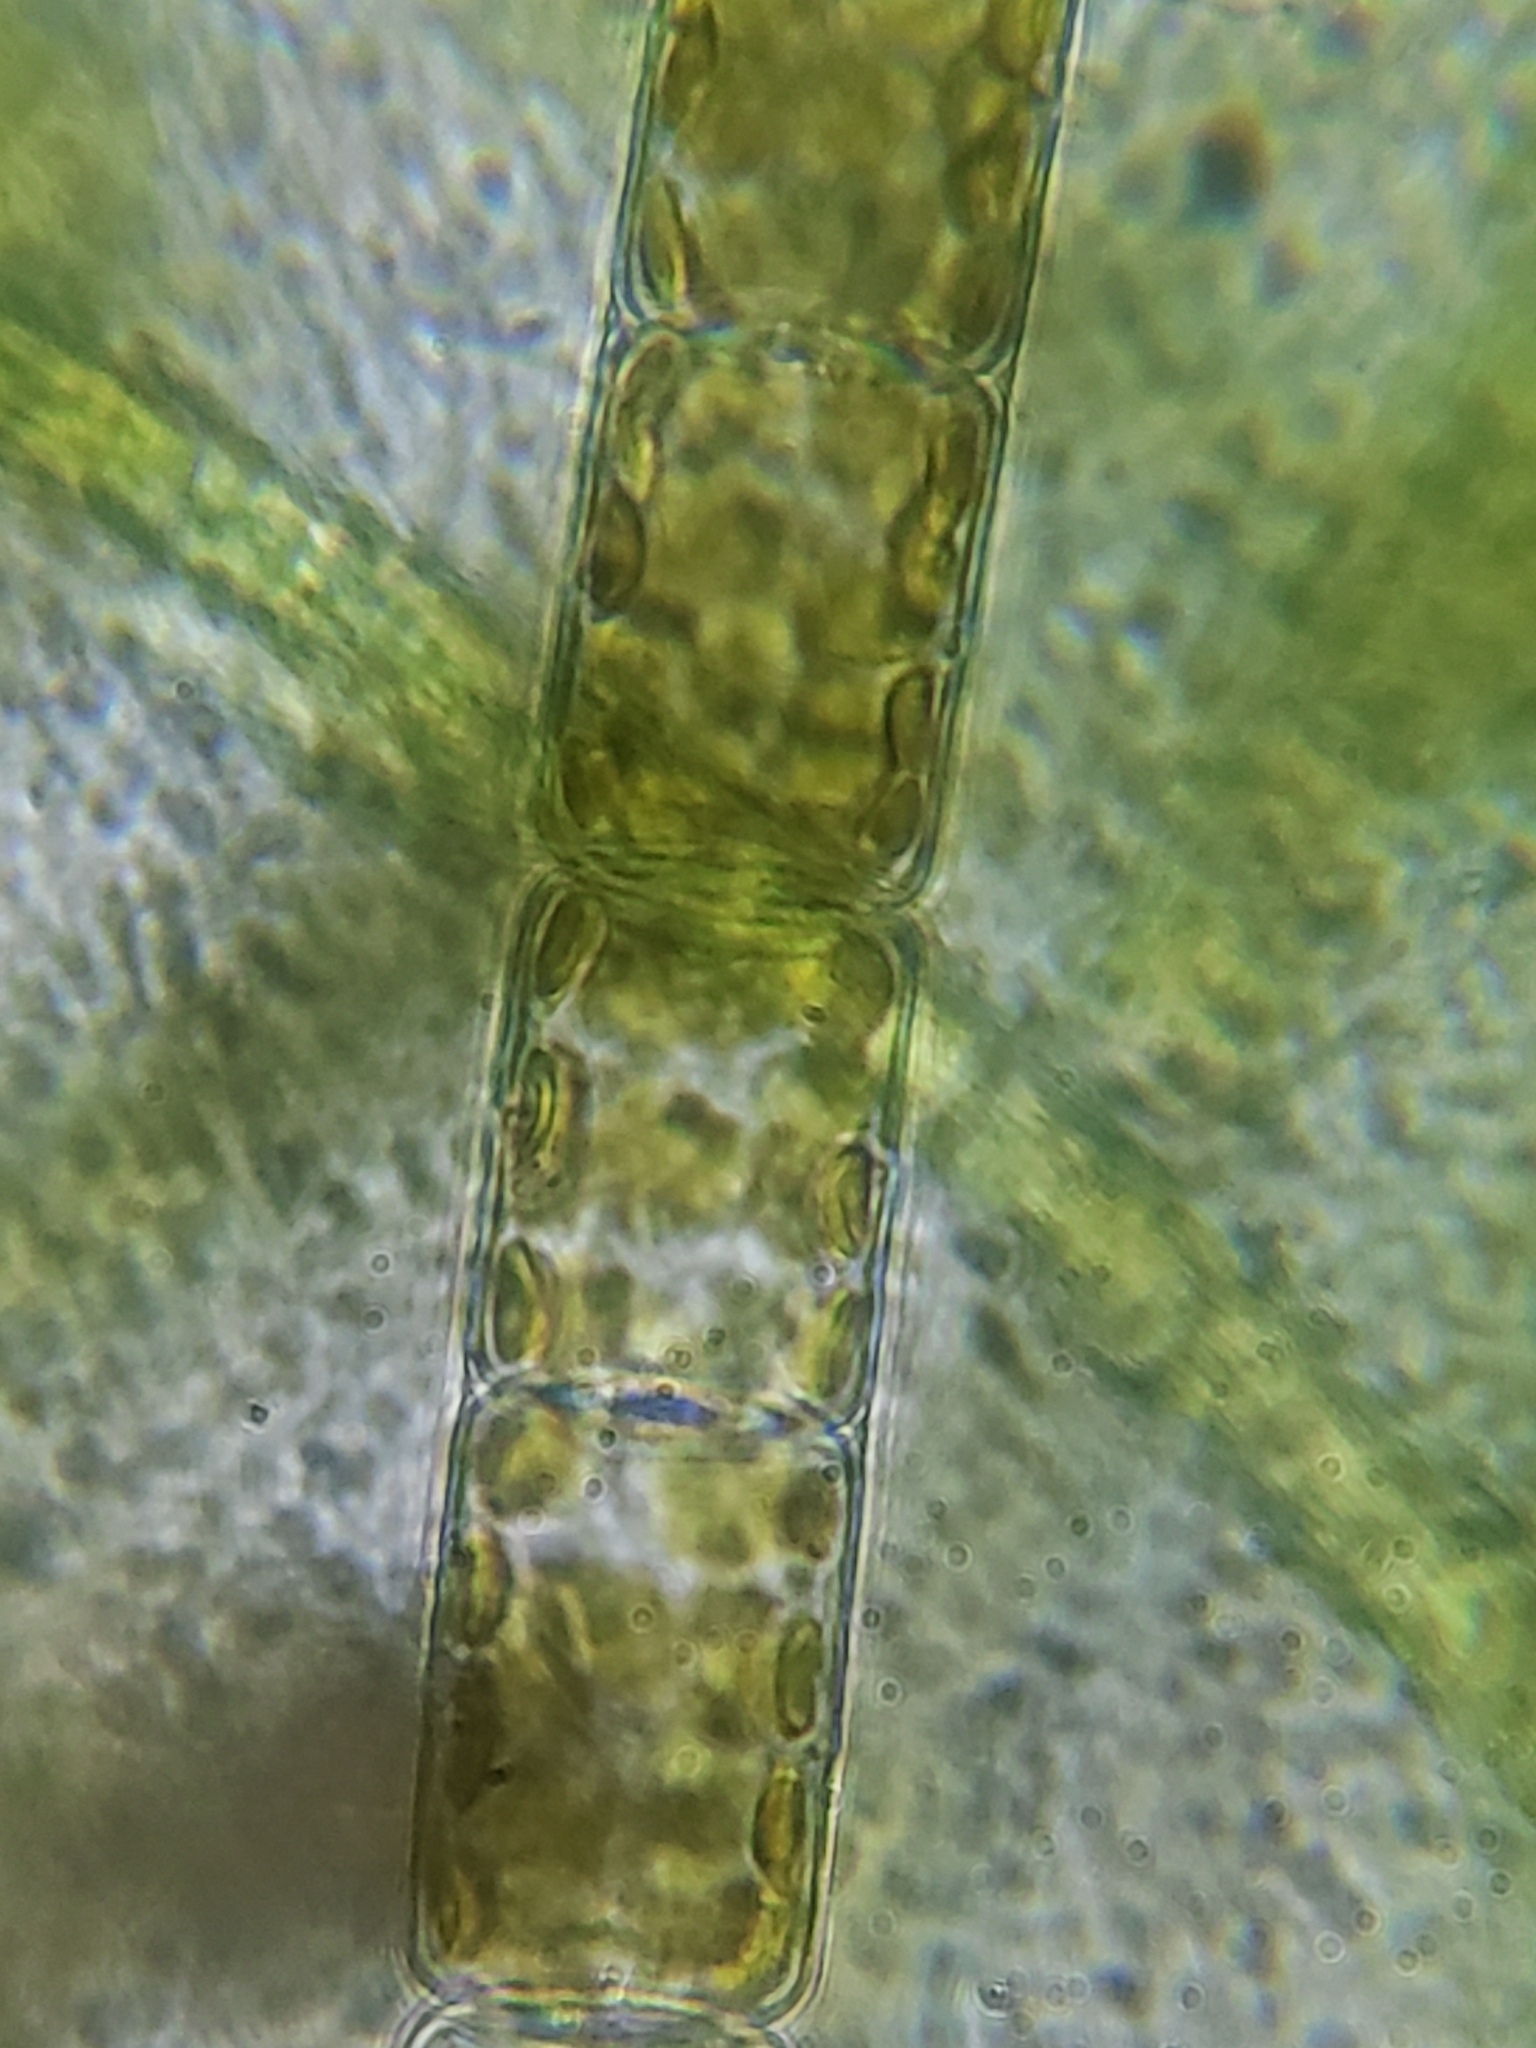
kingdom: Chromista
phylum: Ochrophyta
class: Bacillariophyceae
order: Melosirales
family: Melosiraceae
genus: Melosira
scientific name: Melosira varians
